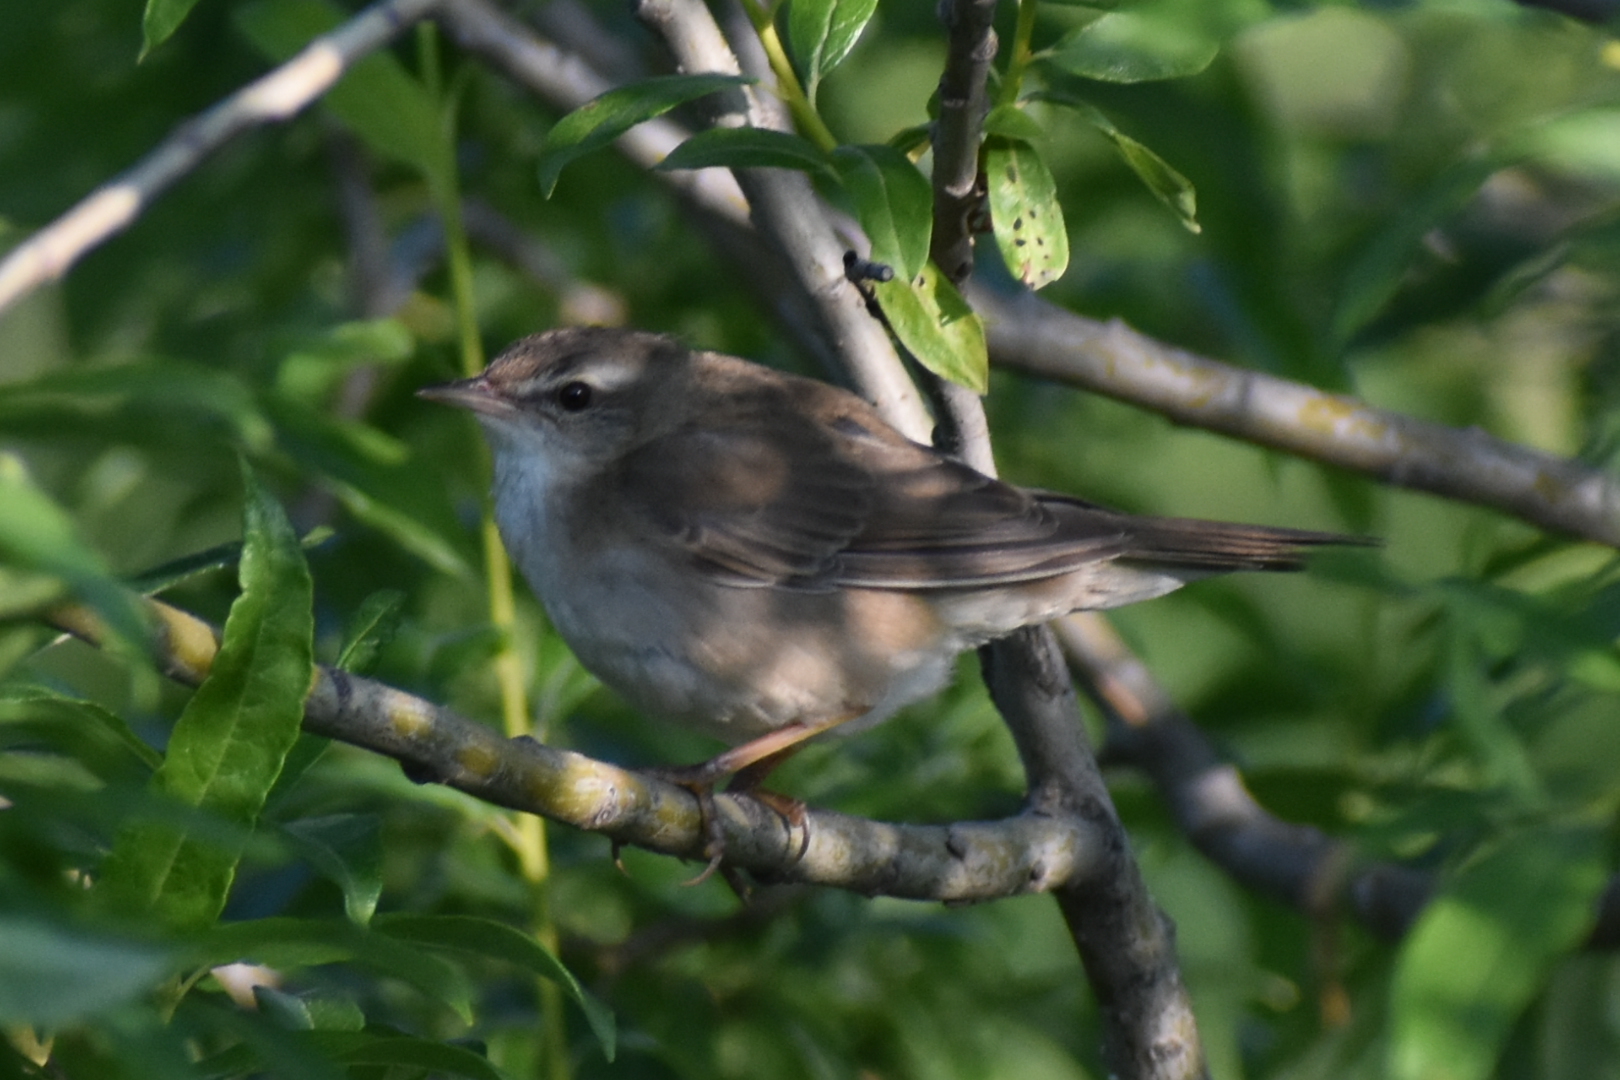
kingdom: Animalia
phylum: Chordata
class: Aves
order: Passeriformes
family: Locustellidae
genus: Locustella
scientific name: Locustella ochotensis
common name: Middendorff's grasshopper-warbler
